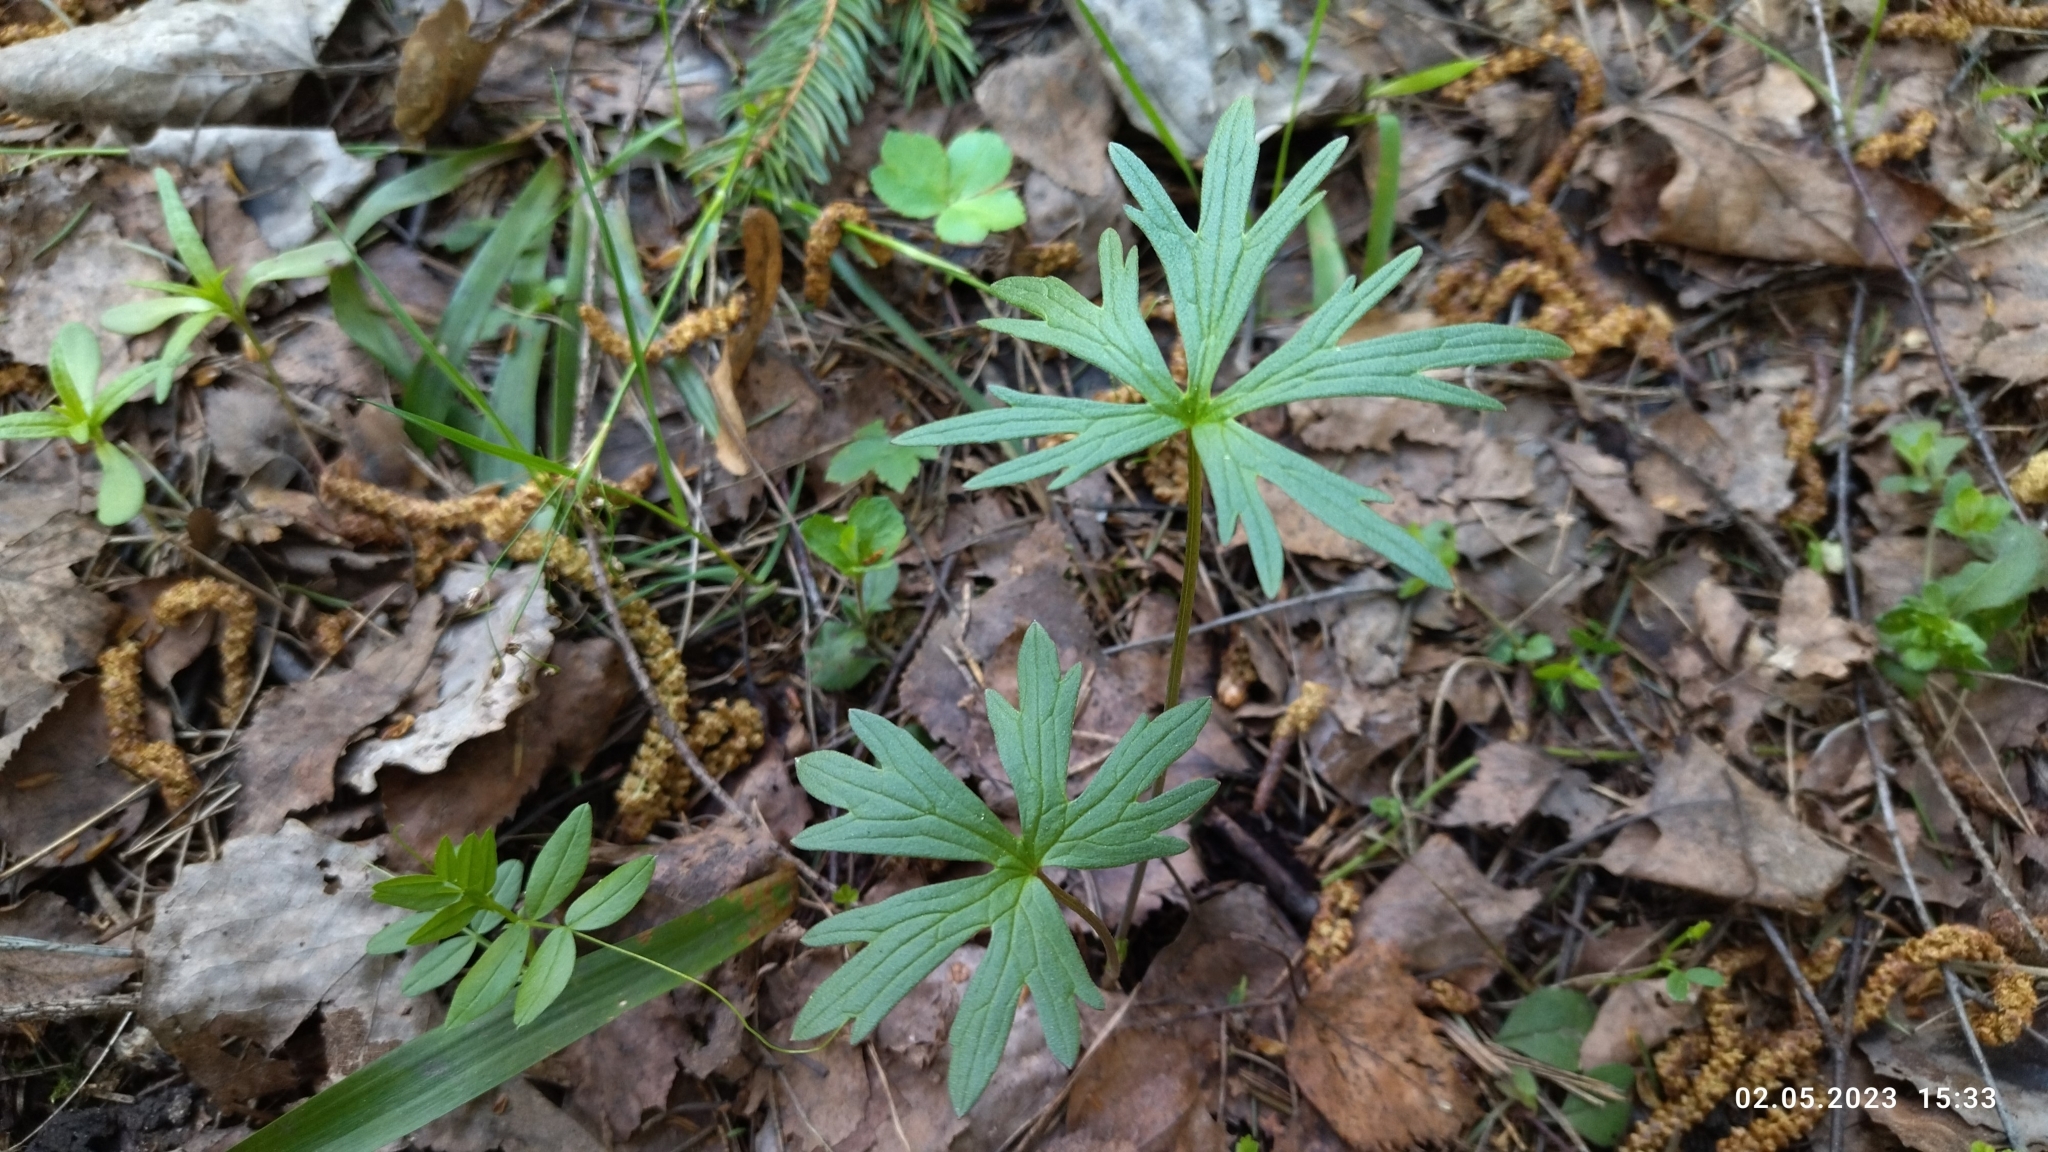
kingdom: Plantae
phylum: Tracheophyta
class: Magnoliopsida
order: Ranunculales
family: Ranunculaceae
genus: Ranunculus
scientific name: Ranunculus acris
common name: Meadow buttercup
